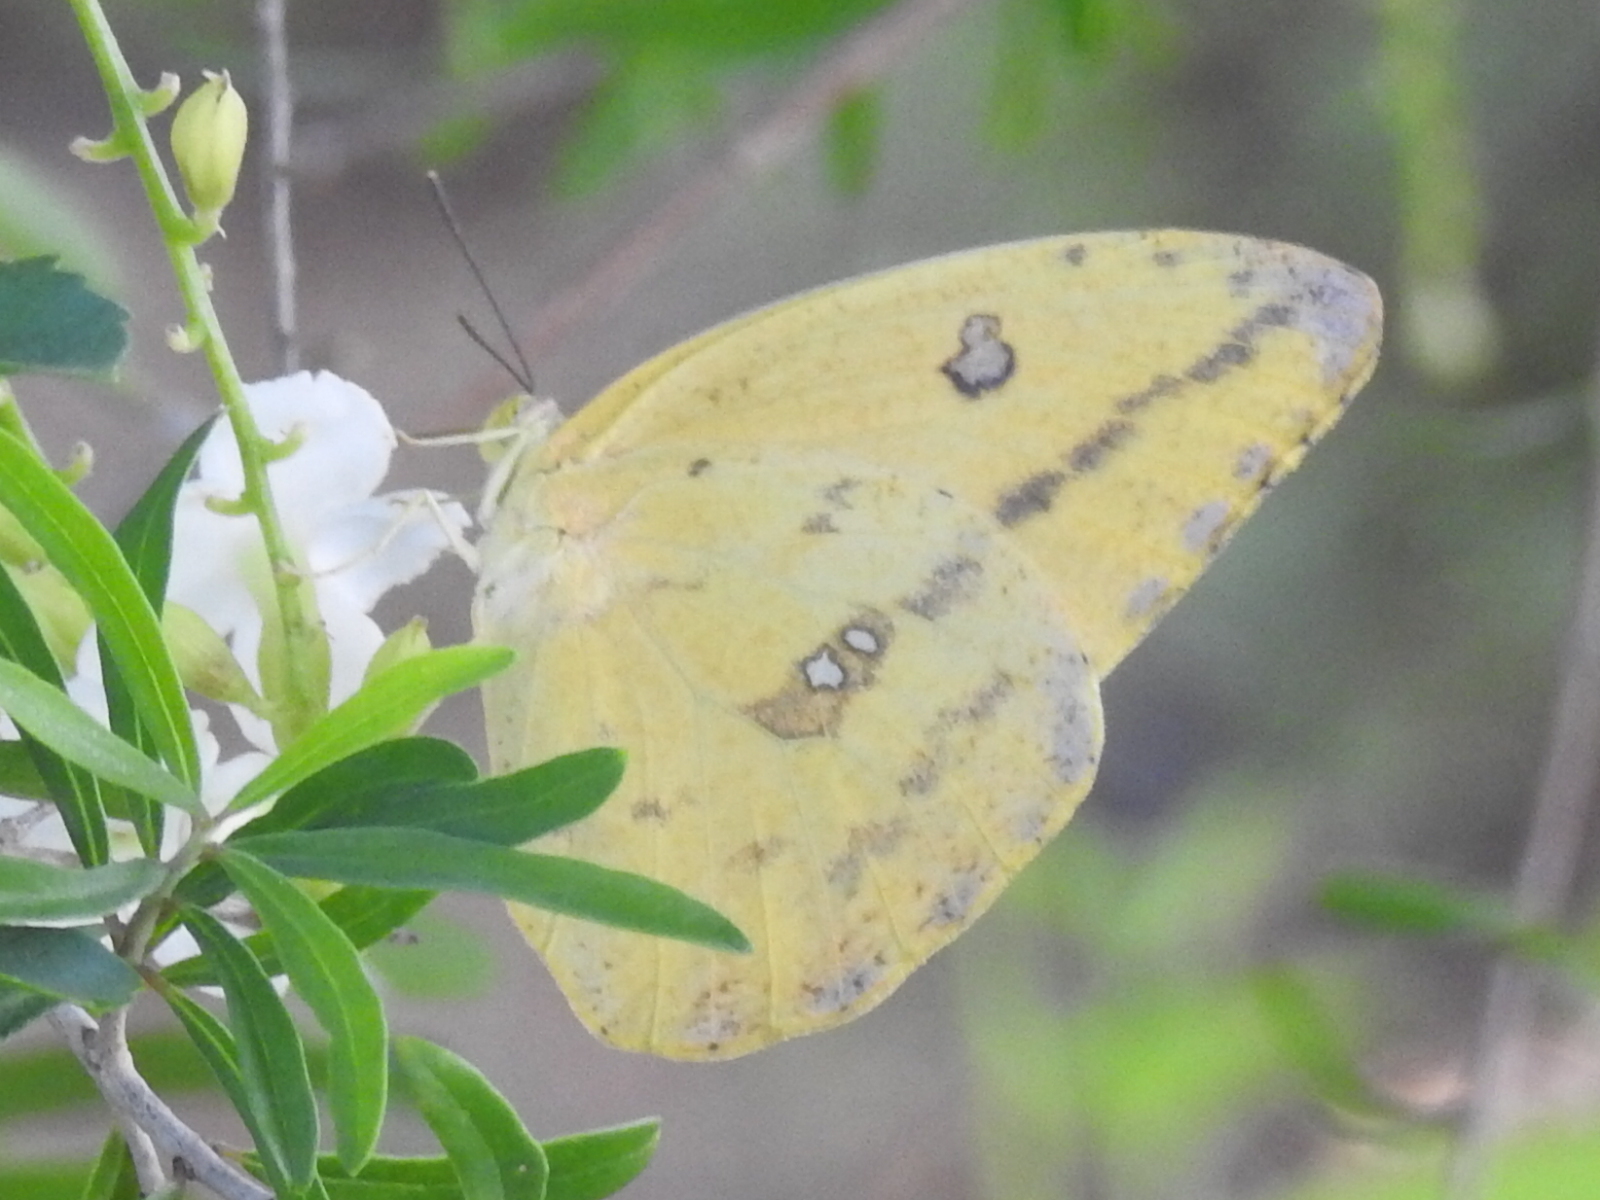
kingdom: Animalia
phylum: Arthropoda
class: Insecta
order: Lepidoptera
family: Pieridae
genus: Phoebis
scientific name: Phoebis agarithe
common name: Large orange sulphur
